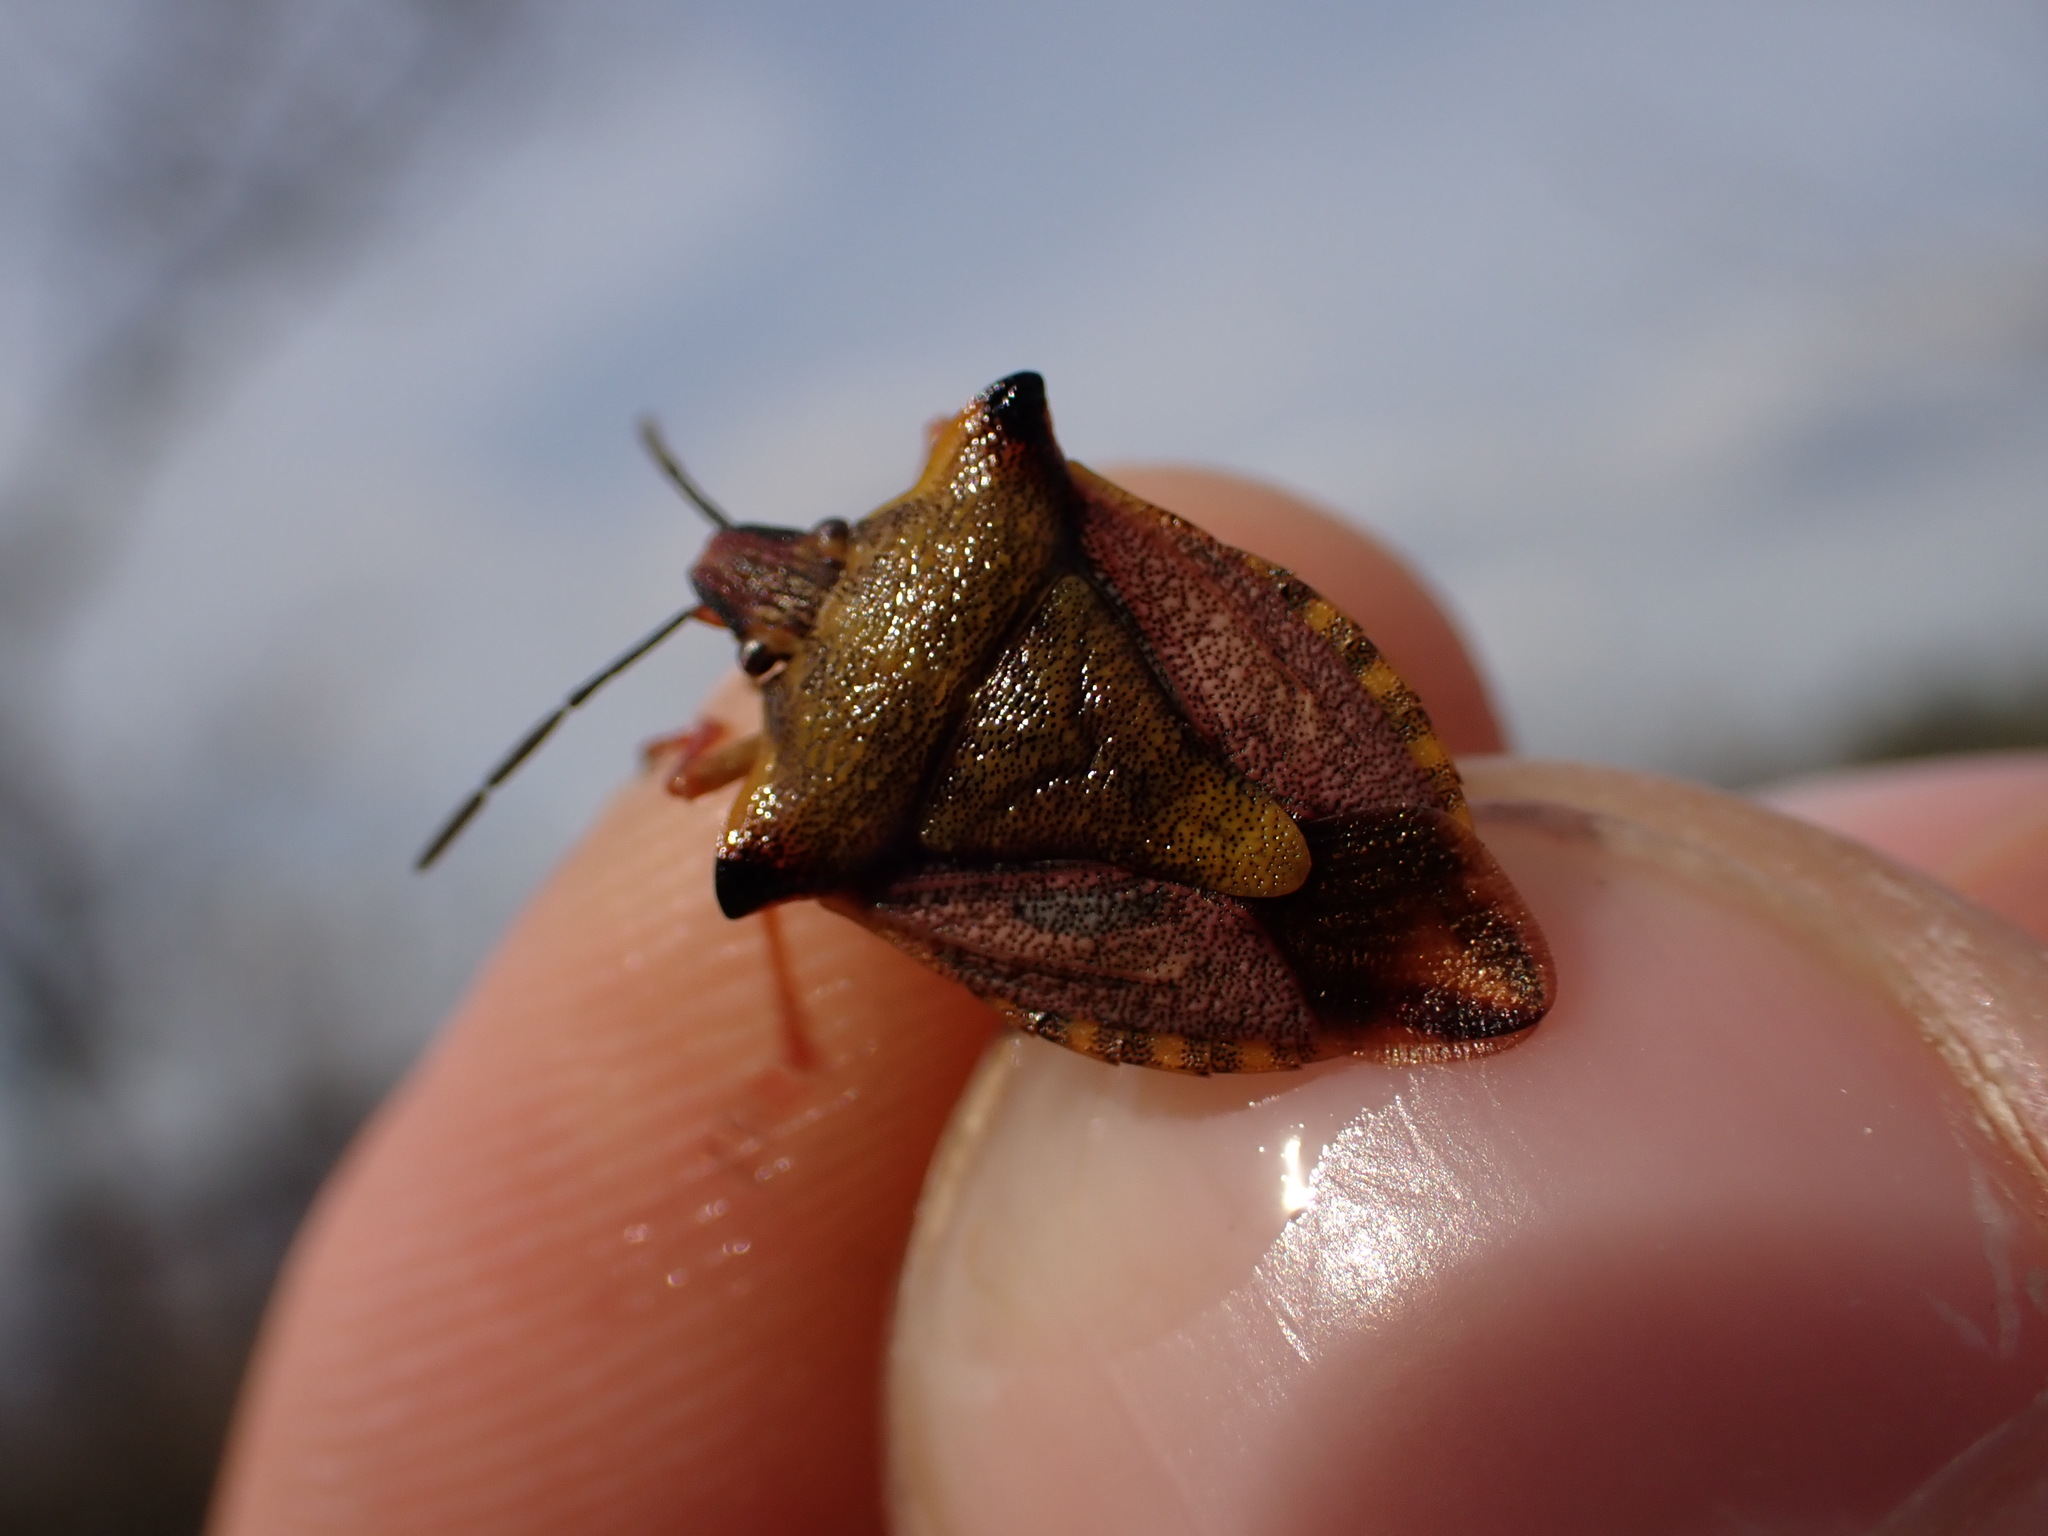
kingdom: Animalia
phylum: Arthropoda
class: Insecta
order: Hemiptera
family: Pentatomidae
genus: Carpocoris
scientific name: Carpocoris mediterraneus
